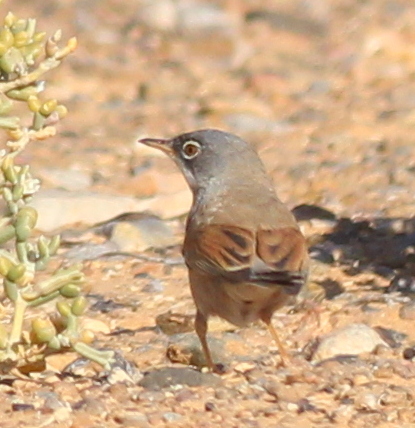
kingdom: Animalia
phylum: Chordata
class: Aves
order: Passeriformes
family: Sylviidae
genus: Sylvia
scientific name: Sylvia conspicillata
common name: Spectacled warbler
